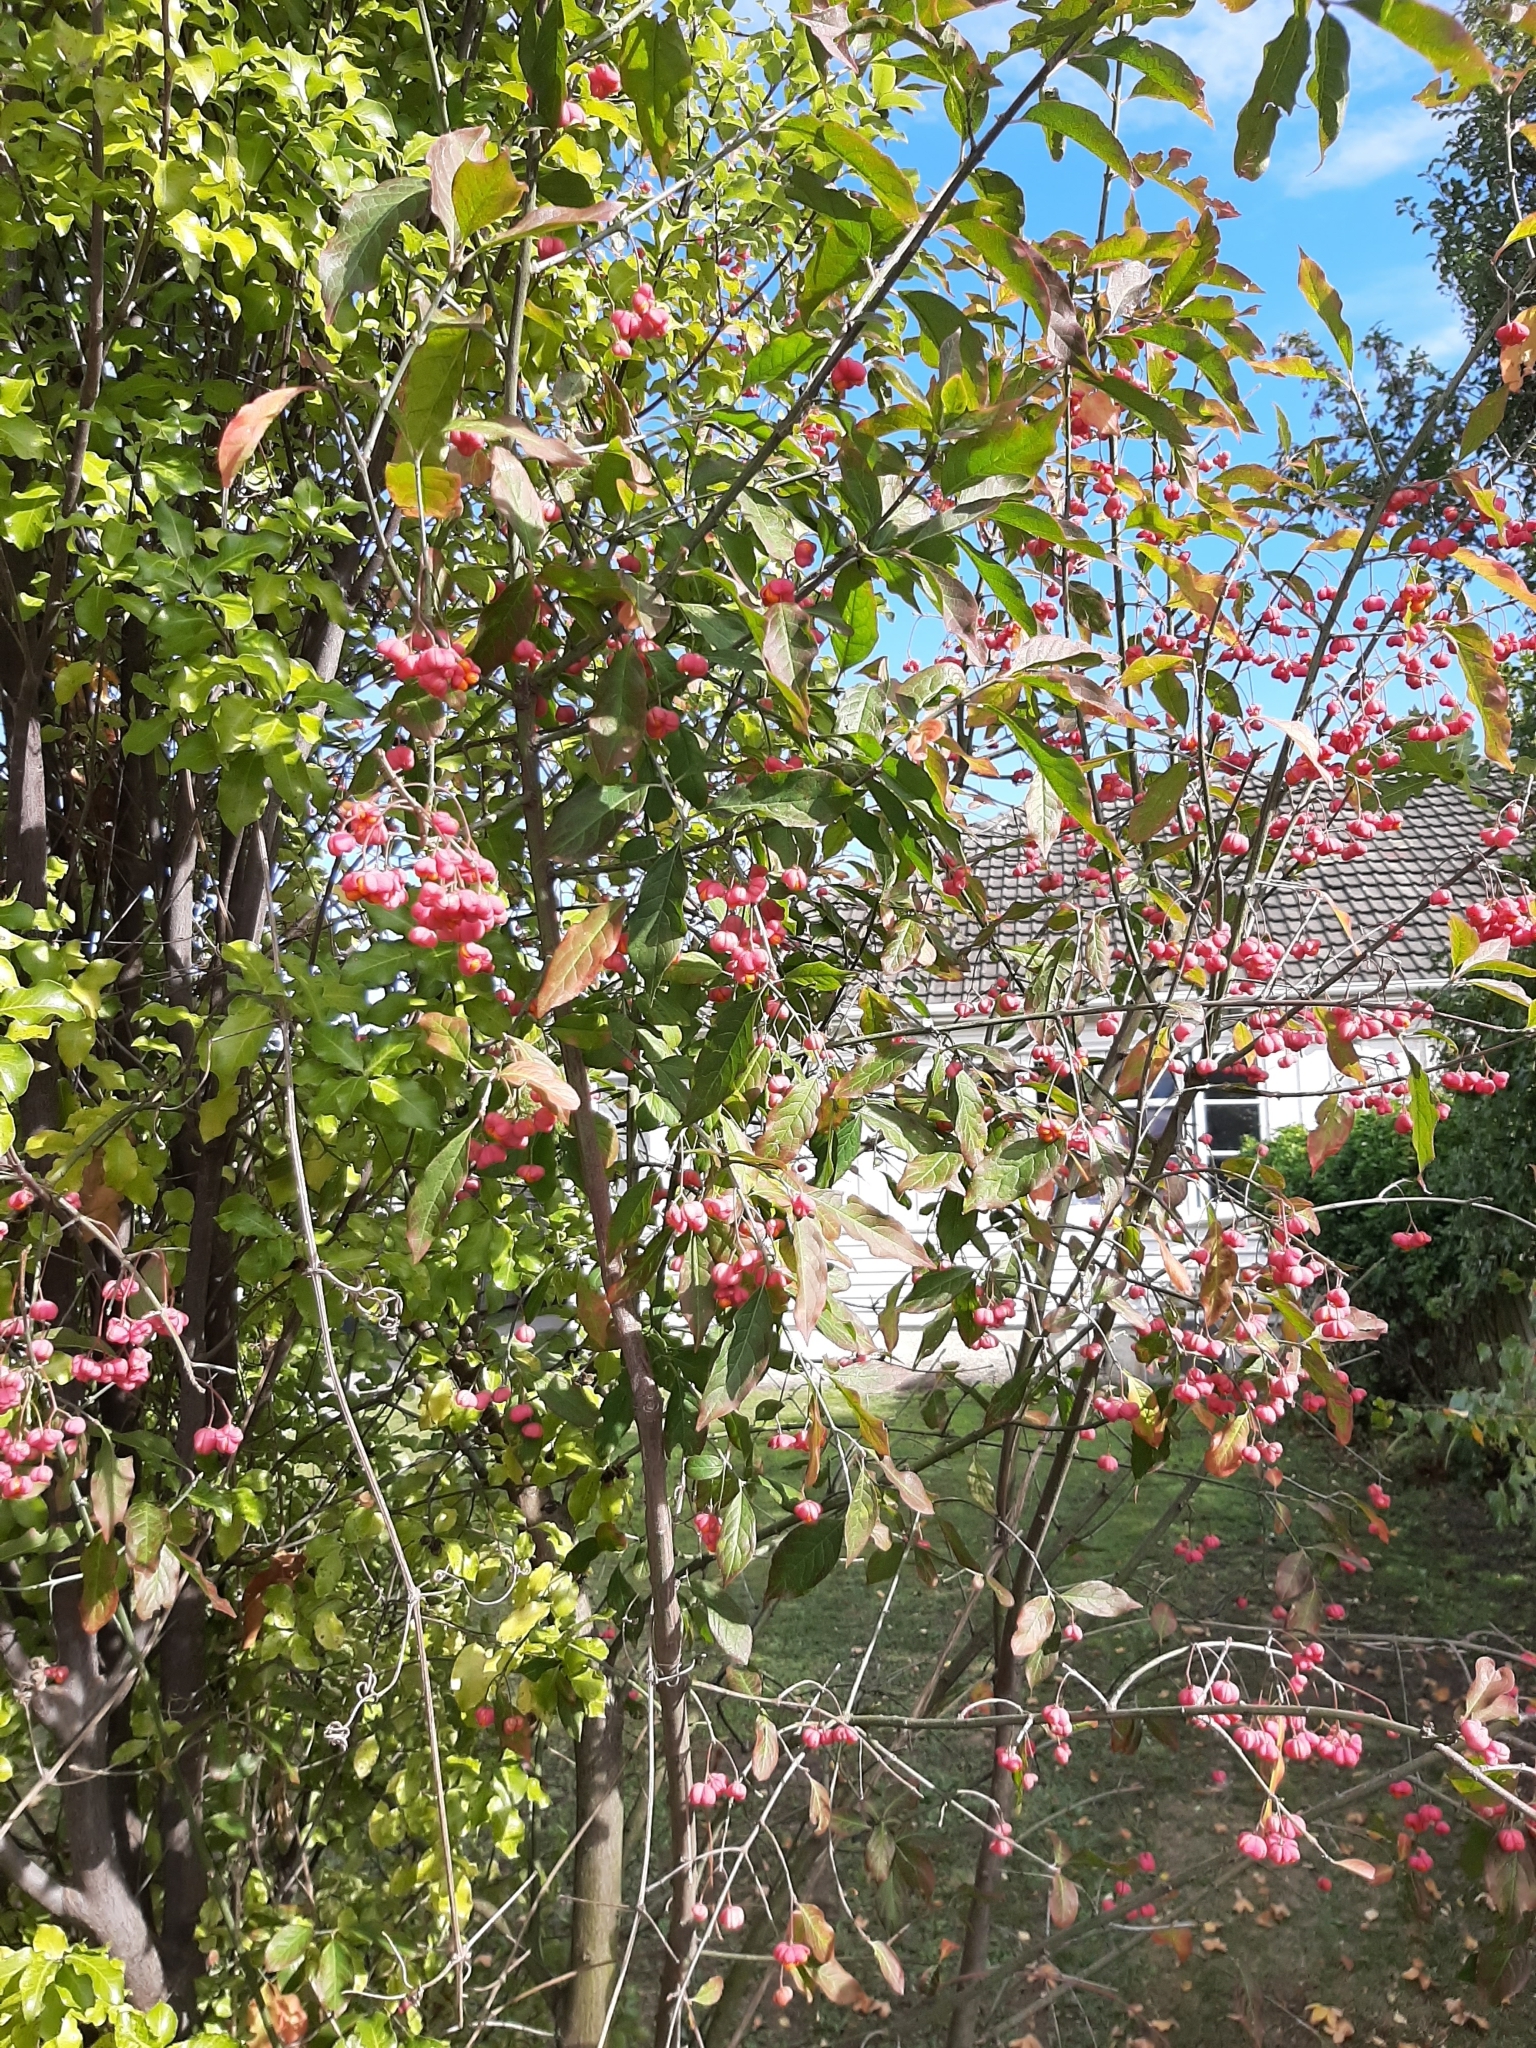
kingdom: Plantae
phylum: Tracheophyta
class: Magnoliopsida
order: Celastrales
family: Celastraceae
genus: Euonymus
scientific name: Euonymus europaeus
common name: Spindle
